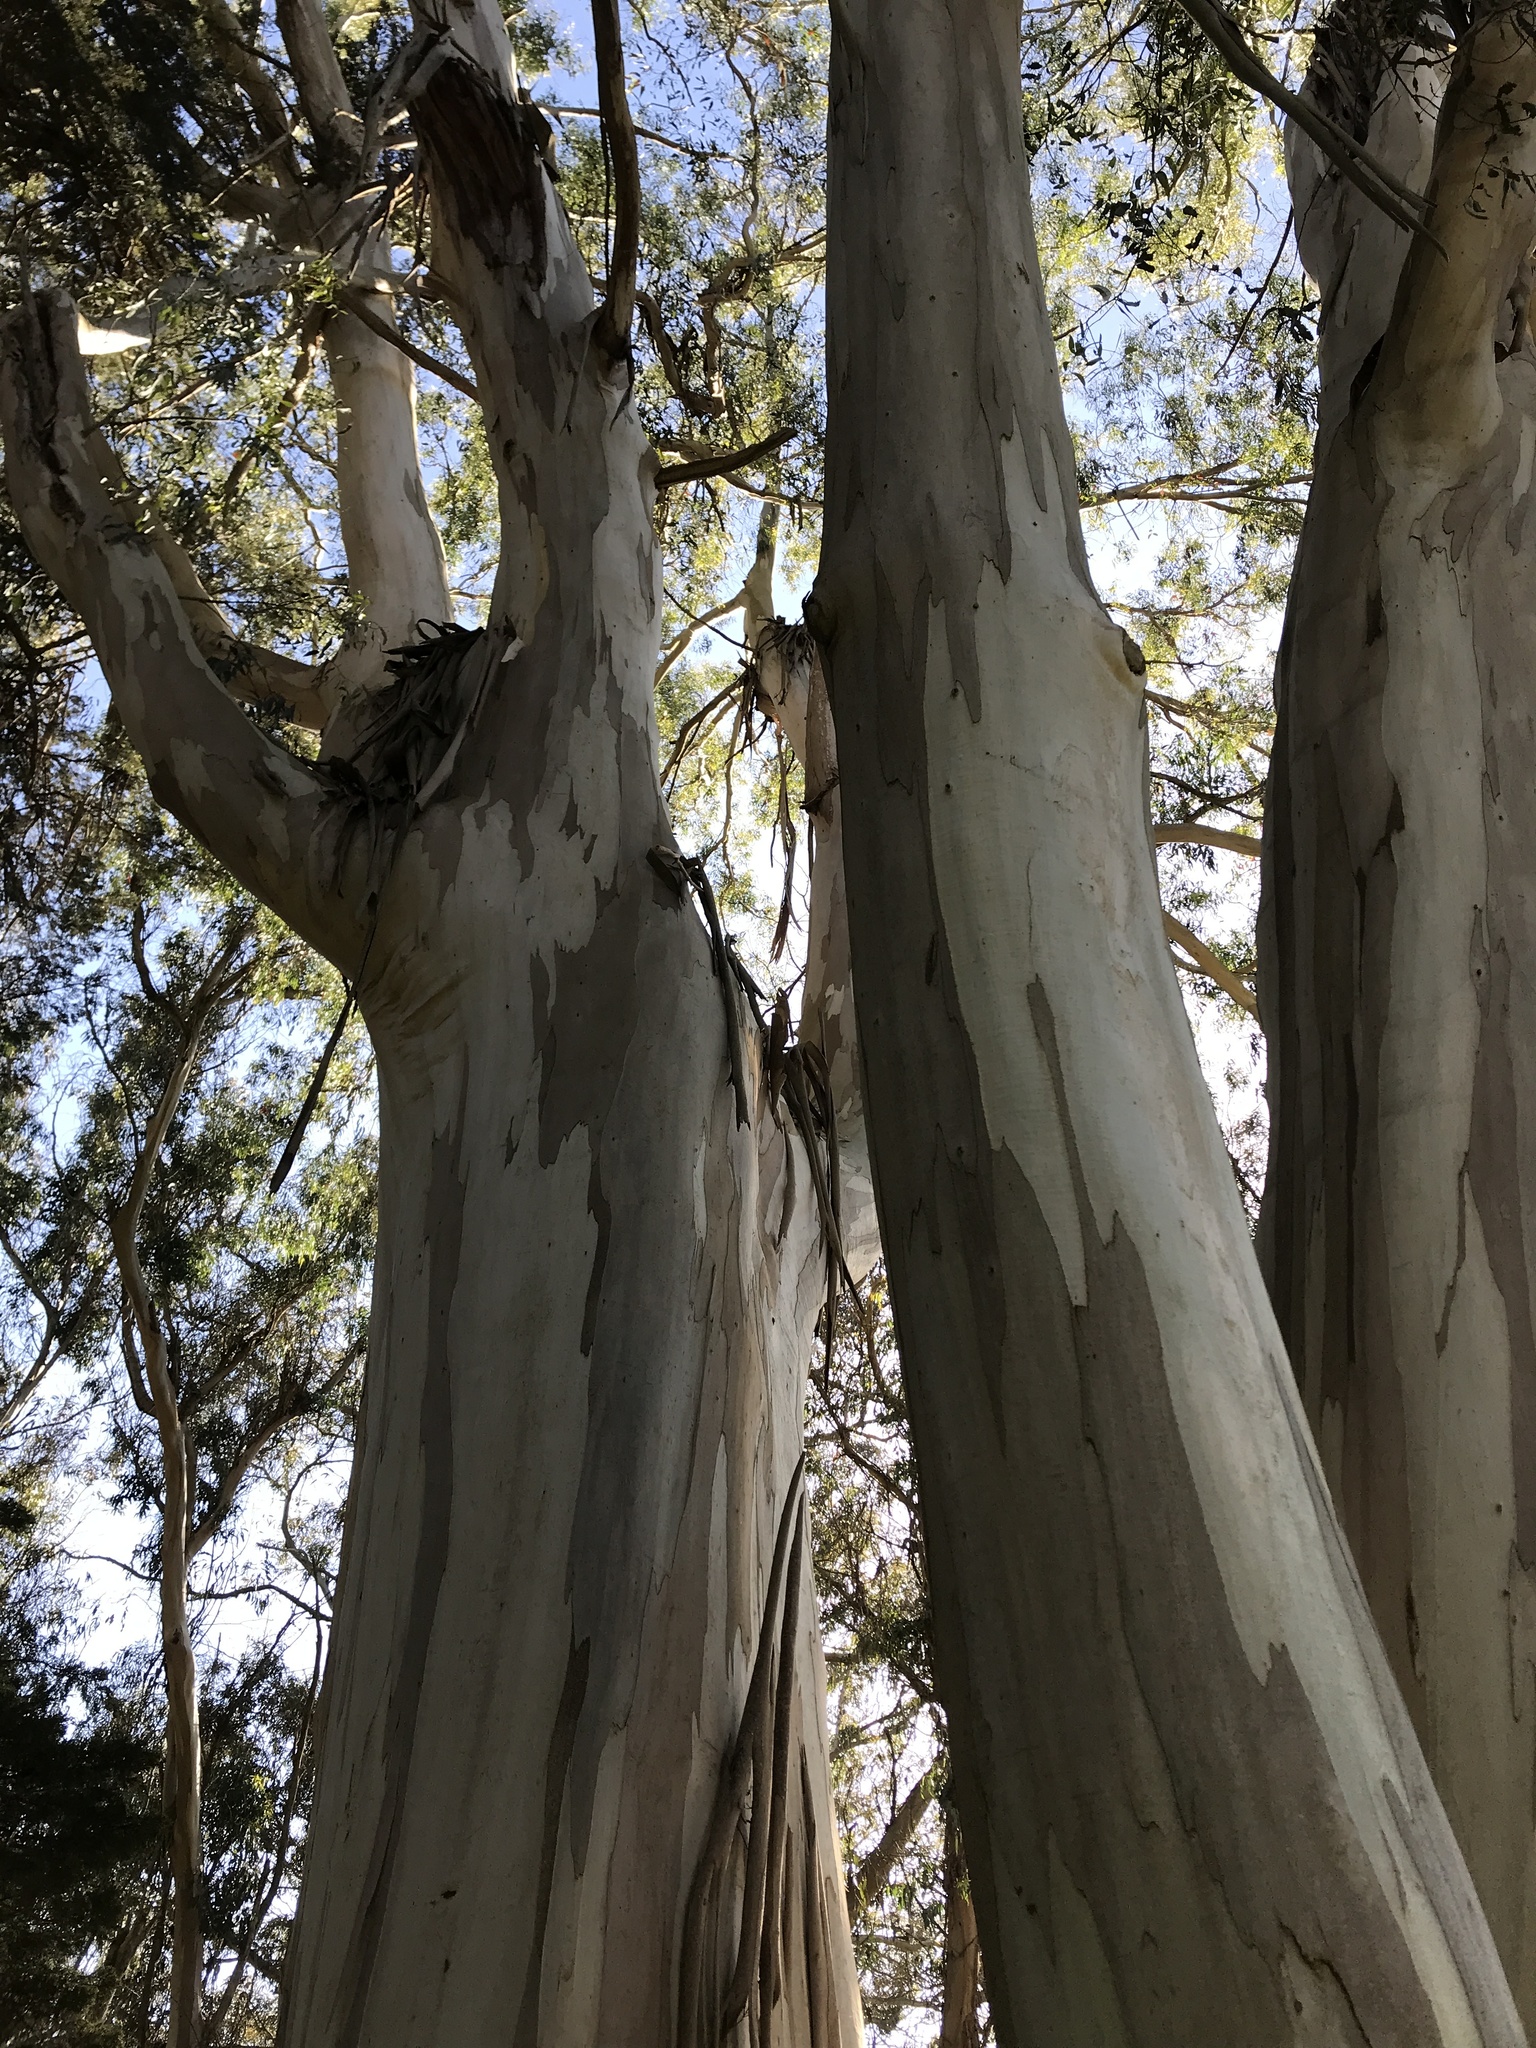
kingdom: Plantae
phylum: Tracheophyta
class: Magnoliopsida
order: Myrtales
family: Myrtaceae
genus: Eucalyptus
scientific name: Eucalyptus globulus
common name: Southern blue-gum
